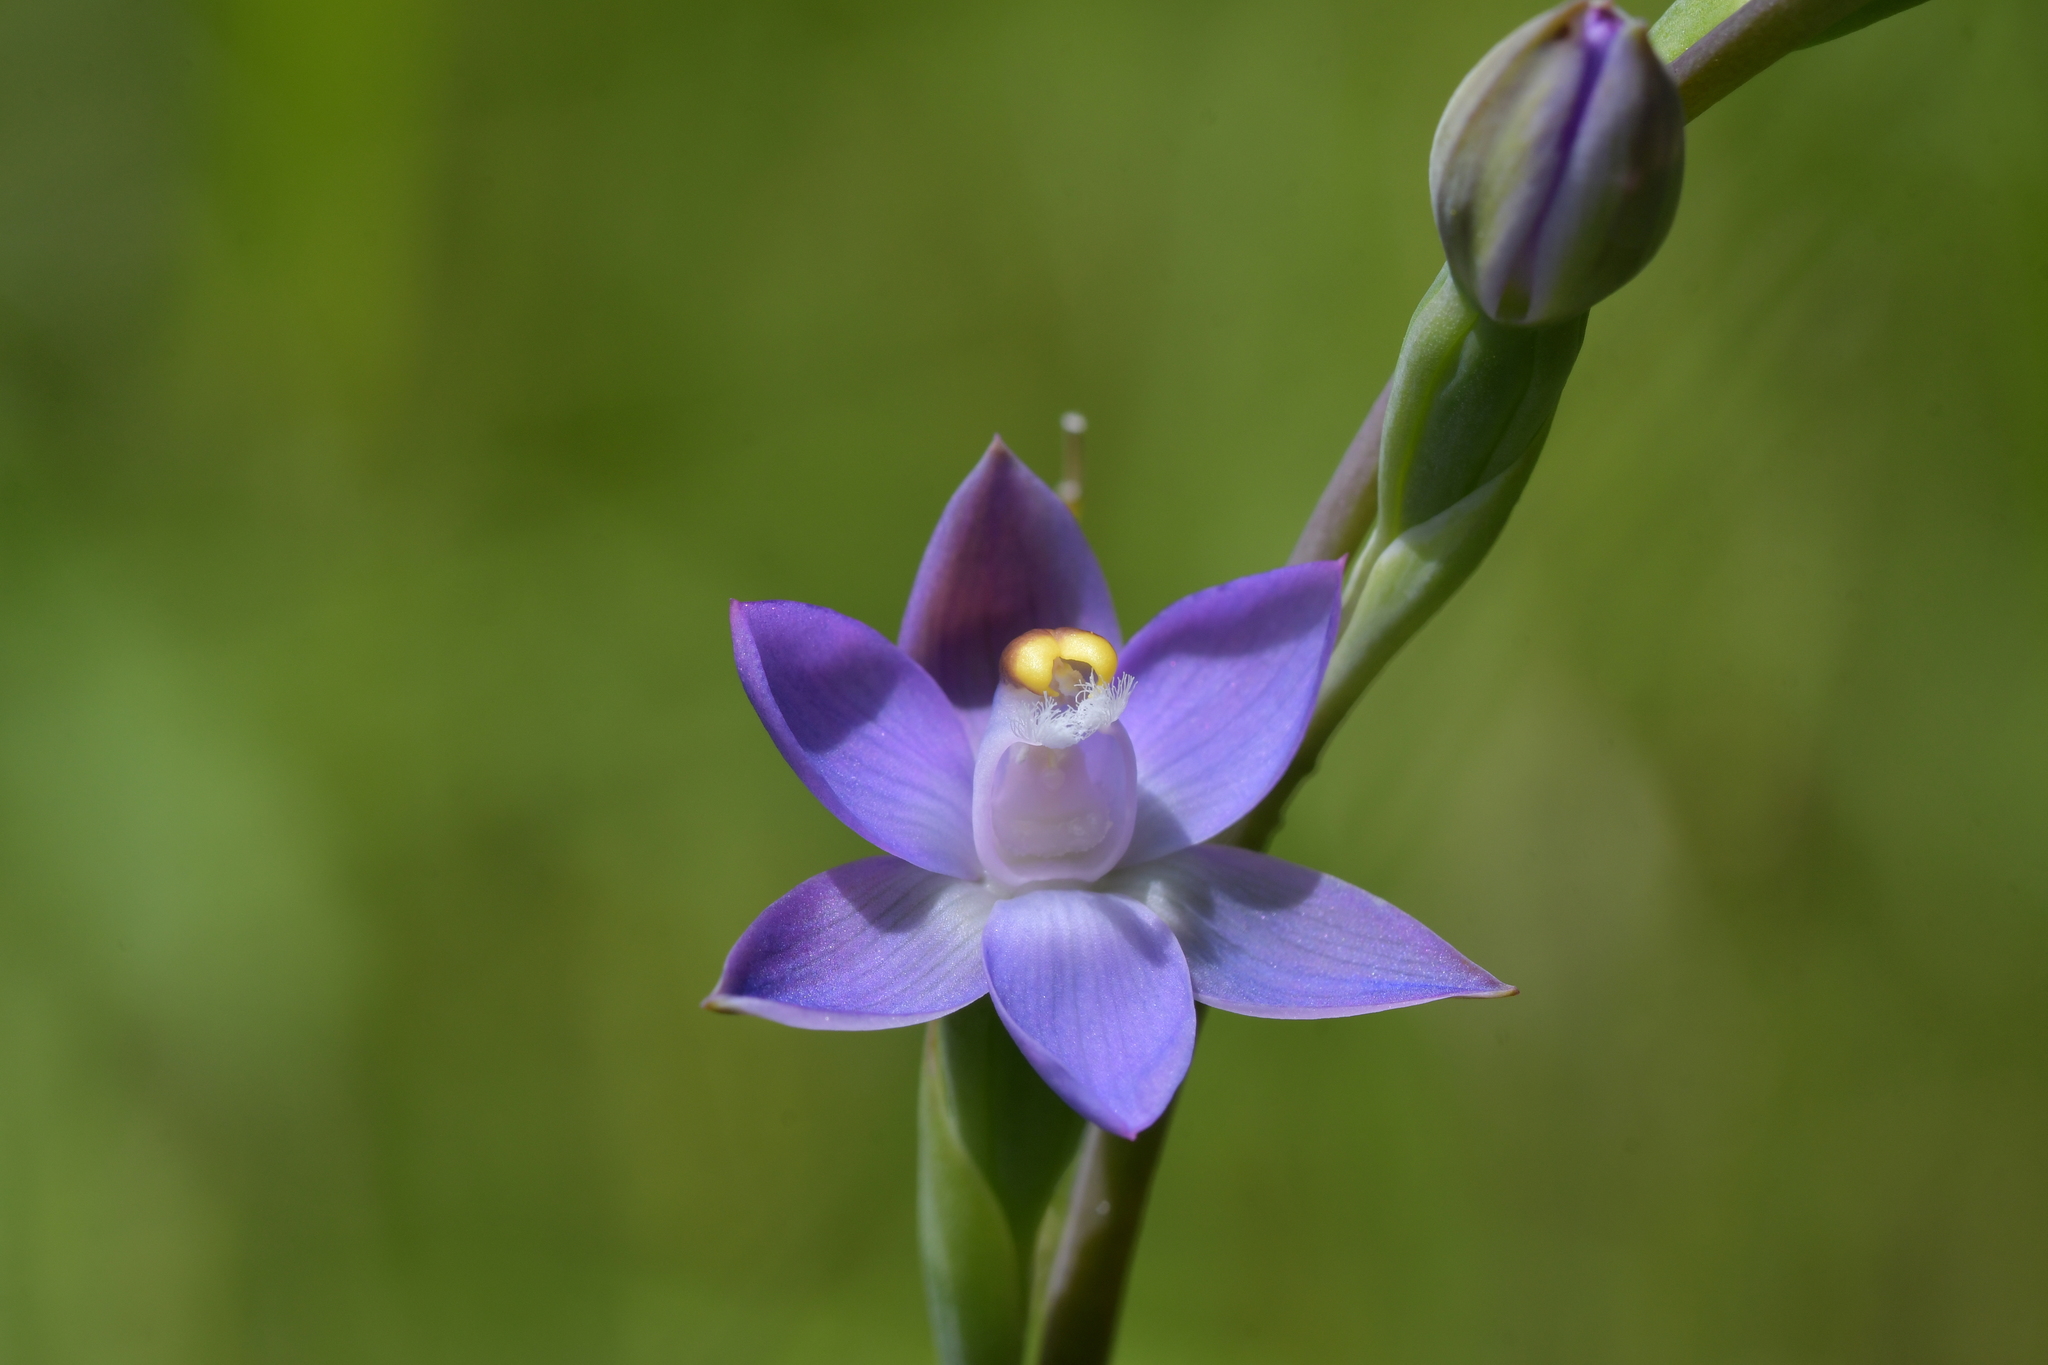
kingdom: Plantae
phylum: Tracheophyta
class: Liliopsida
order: Asparagales
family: Orchidaceae
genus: Thelymitra
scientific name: Thelymitra pauciflora
